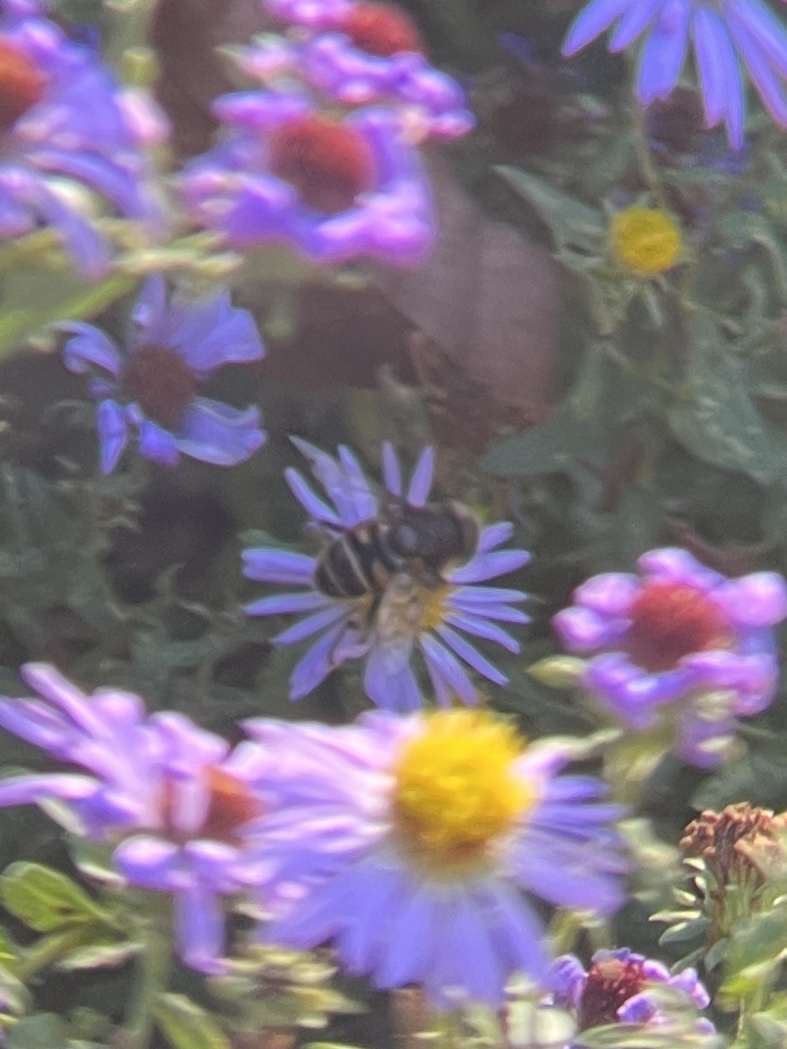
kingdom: Animalia
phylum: Arthropoda
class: Insecta
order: Diptera
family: Syrphidae
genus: Eristalis
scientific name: Eristalis dimidiata
